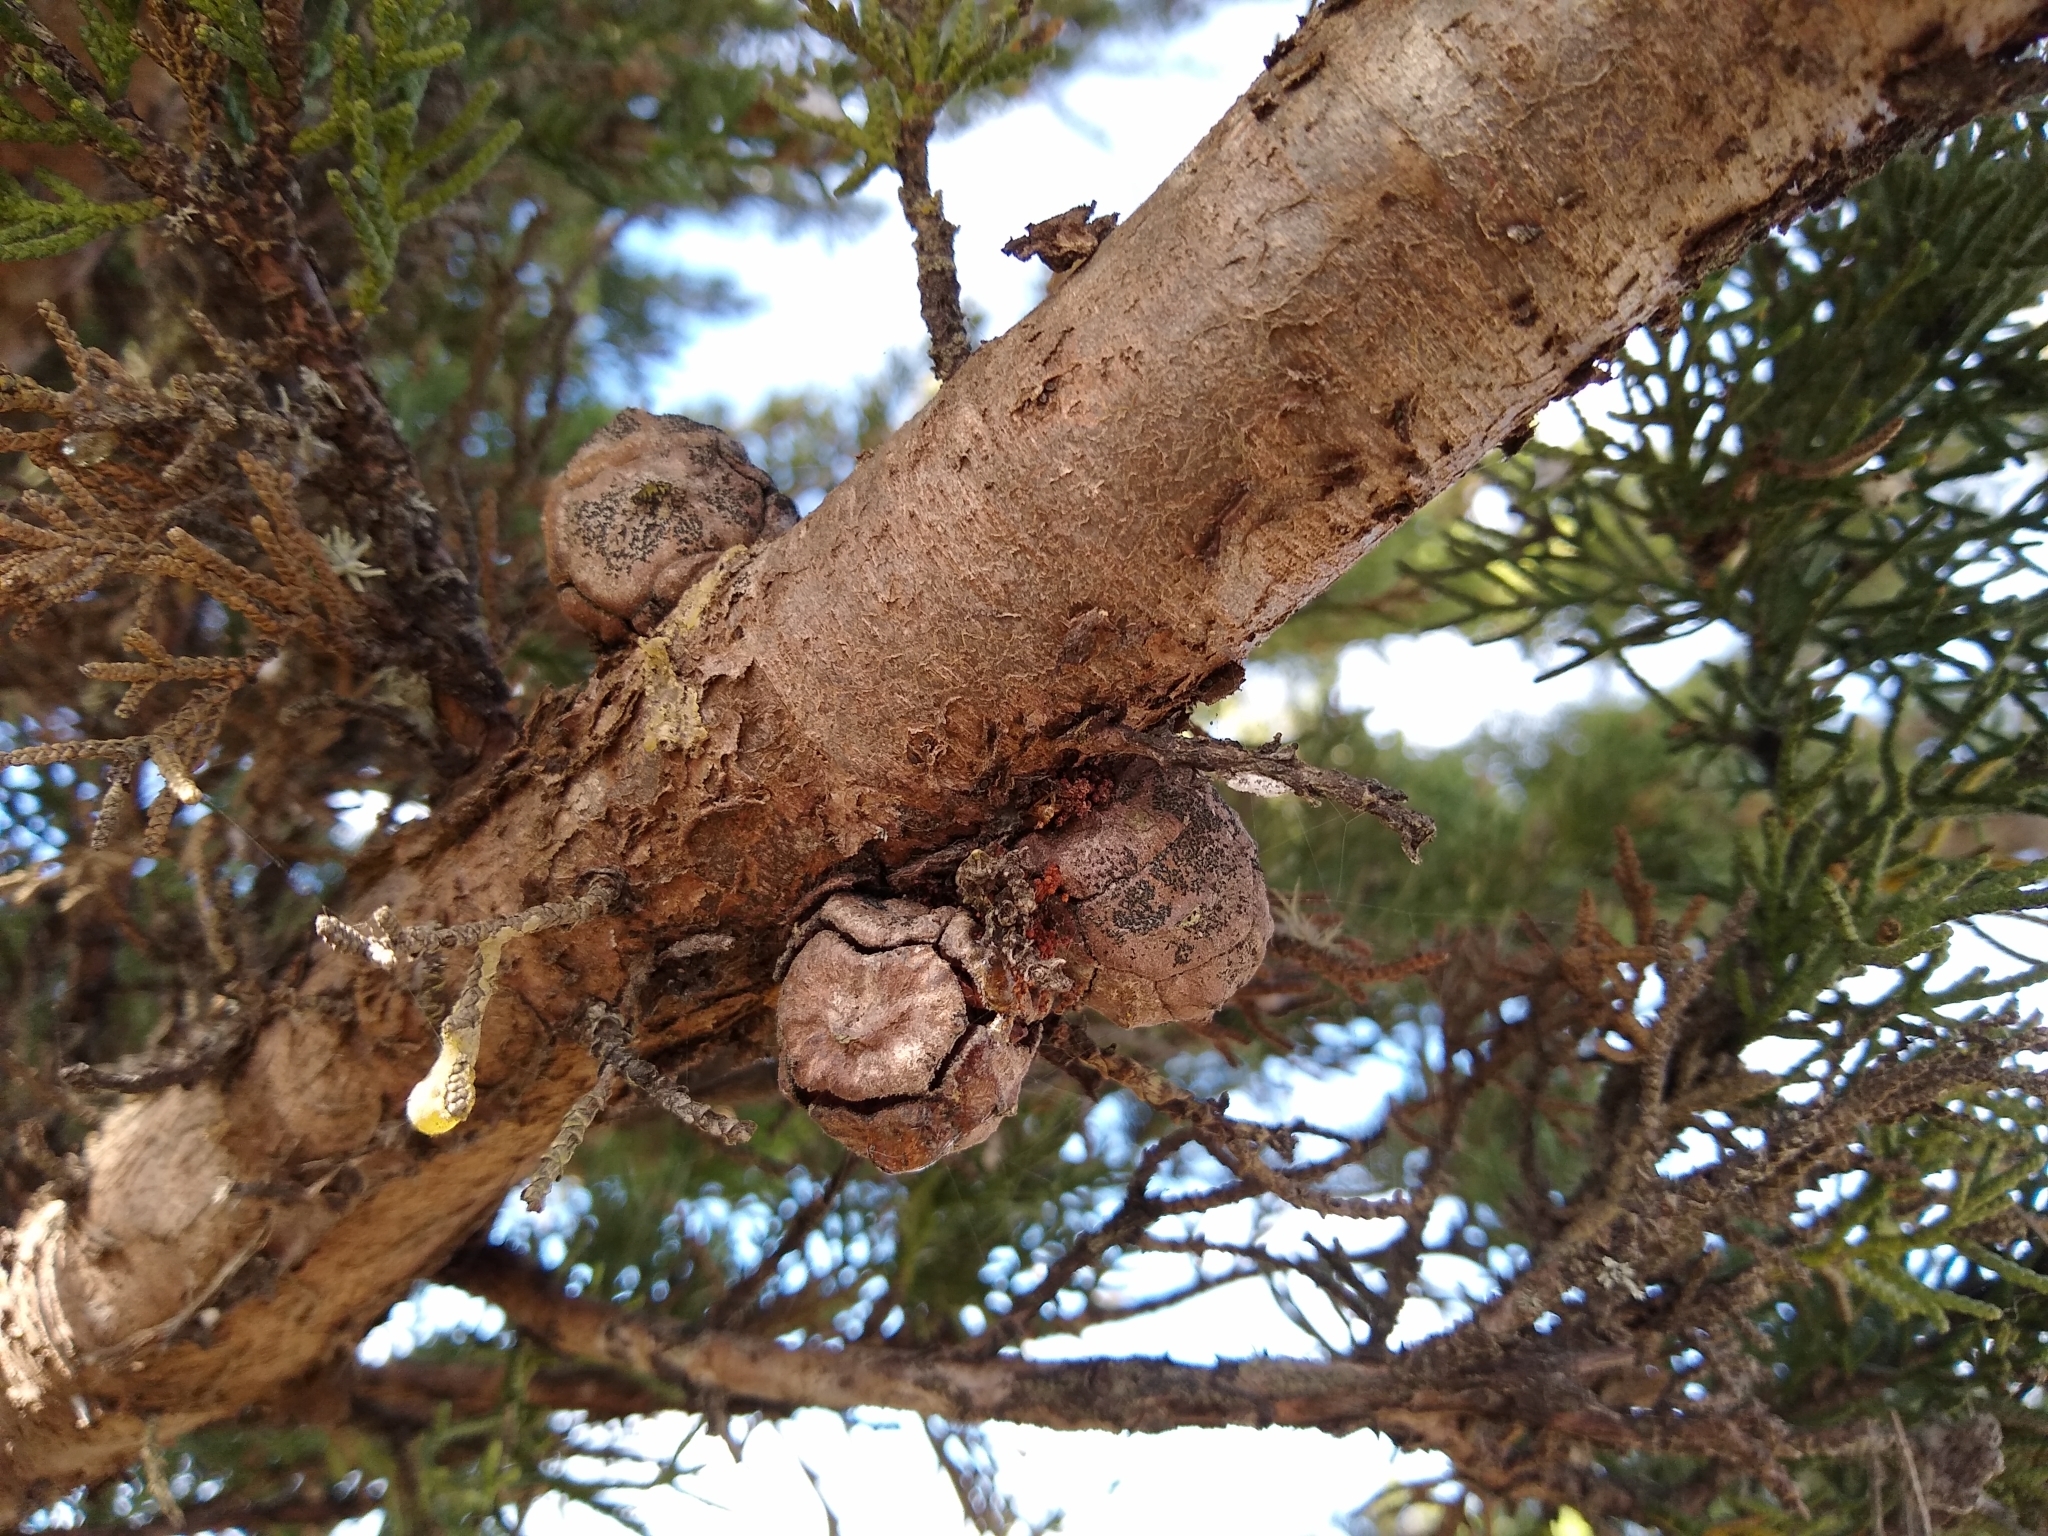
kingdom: Plantae
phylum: Tracheophyta
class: Pinopsida
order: Pinales
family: Cupressaceae
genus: Cupressus
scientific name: Cupressus macrocarpa
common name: Monterey cypress
